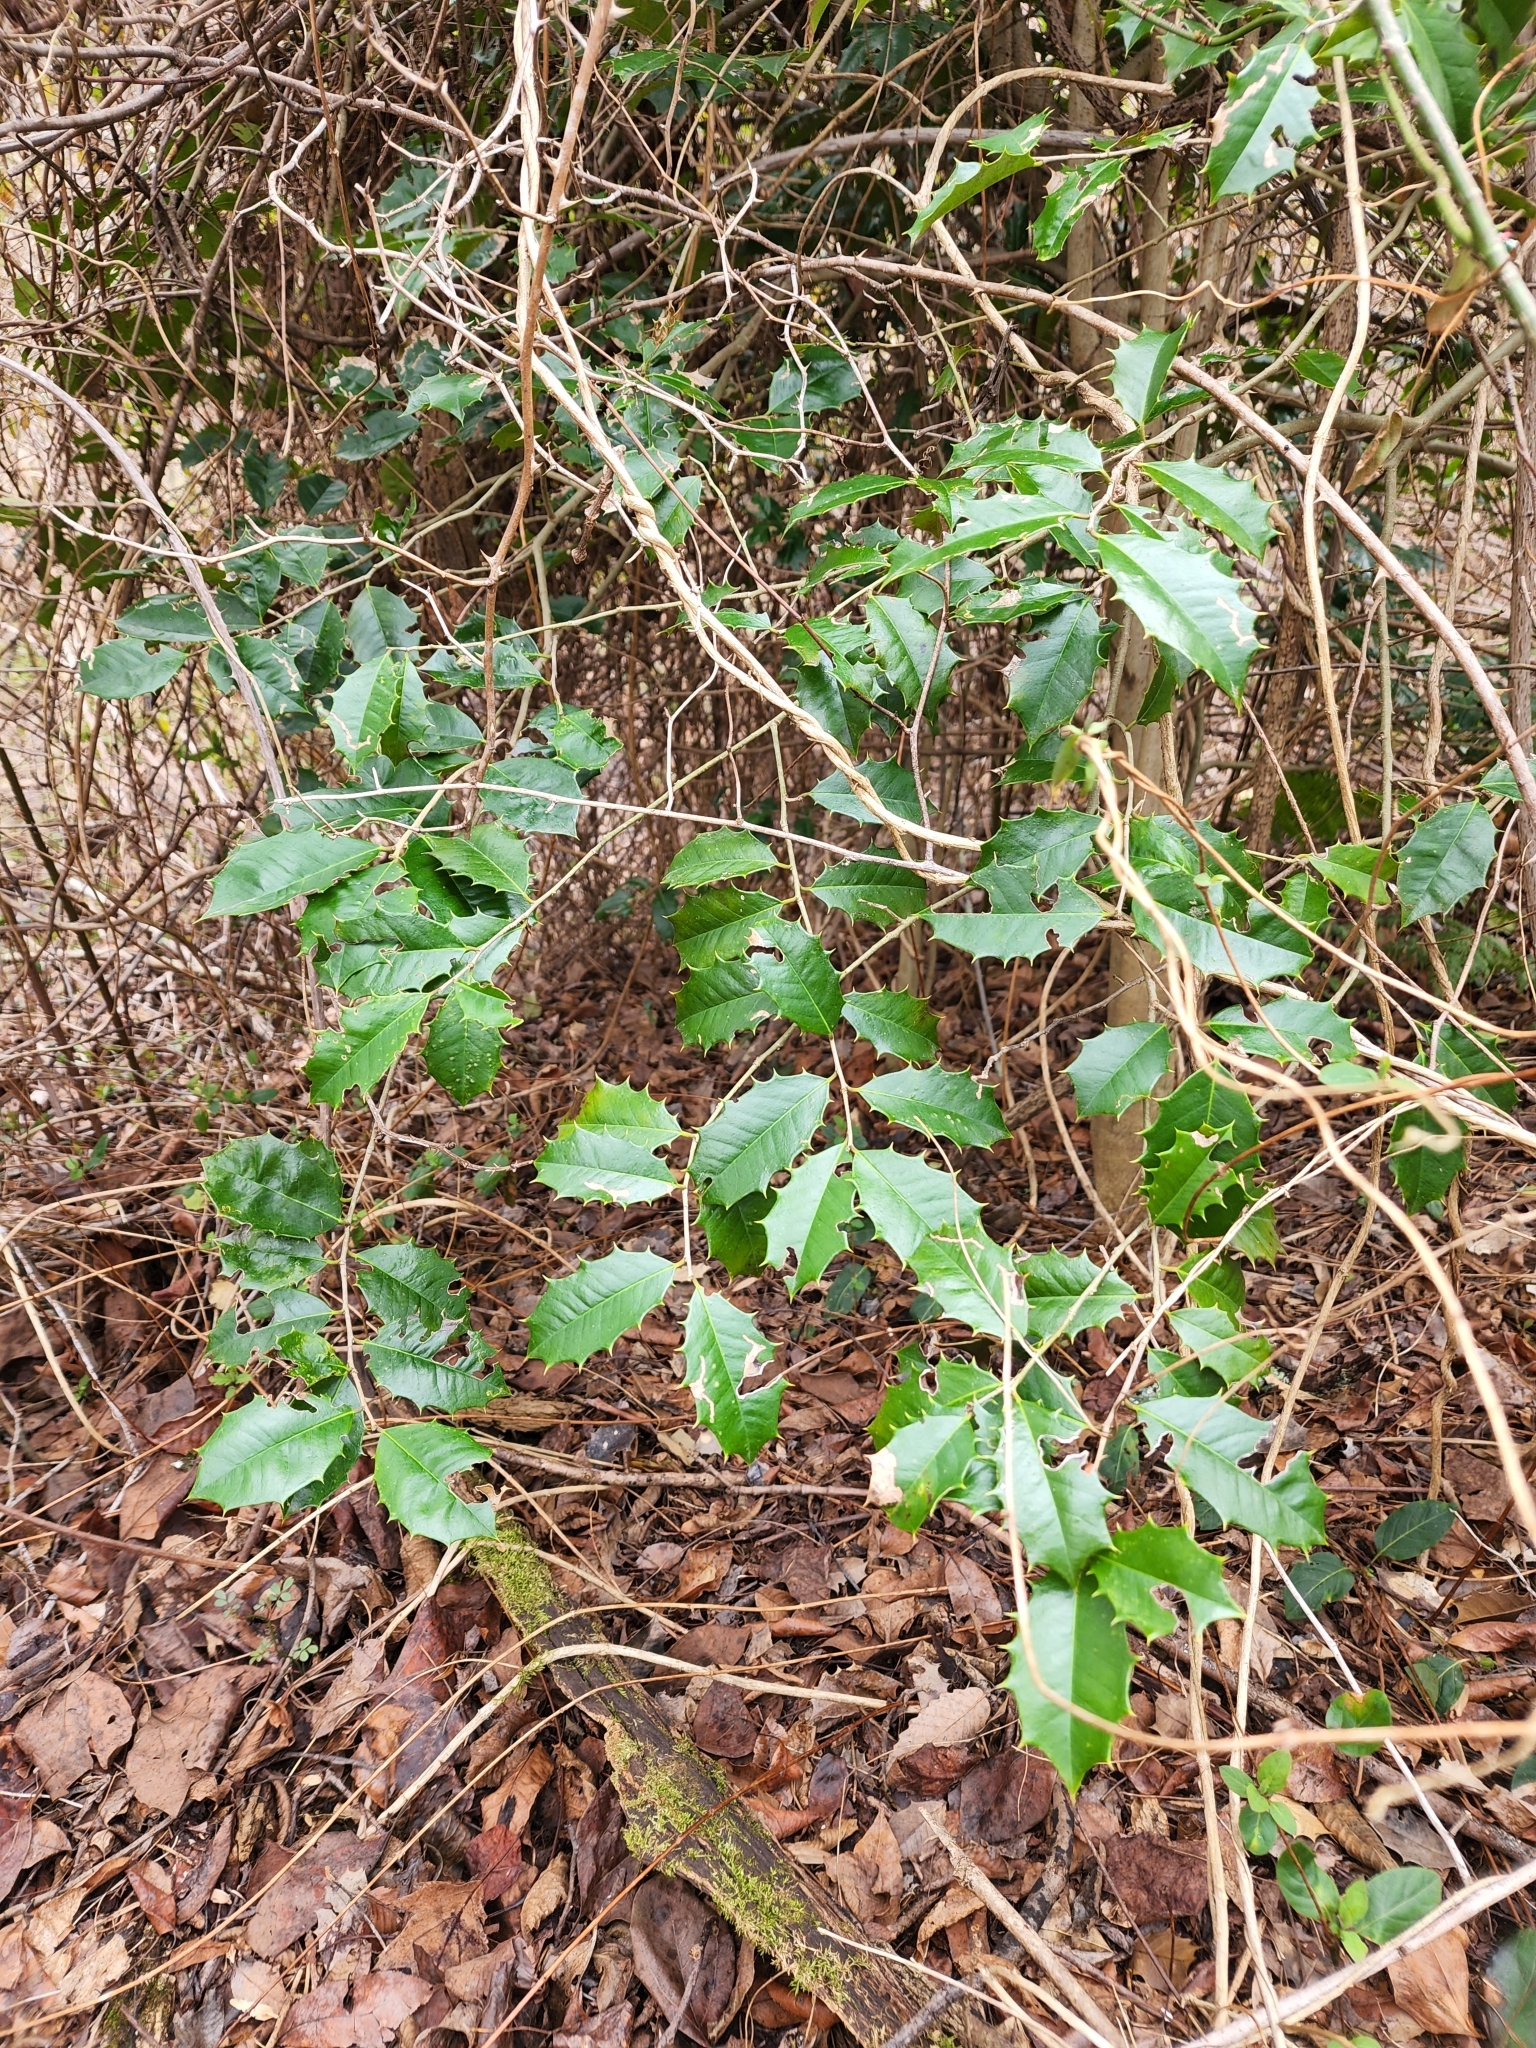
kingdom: Plantae
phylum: Tracheophyta
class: Magnoliopsida
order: Aquifoliales
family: Aquifoliaceae
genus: Ilex
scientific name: Ilex opaca
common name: American holly
